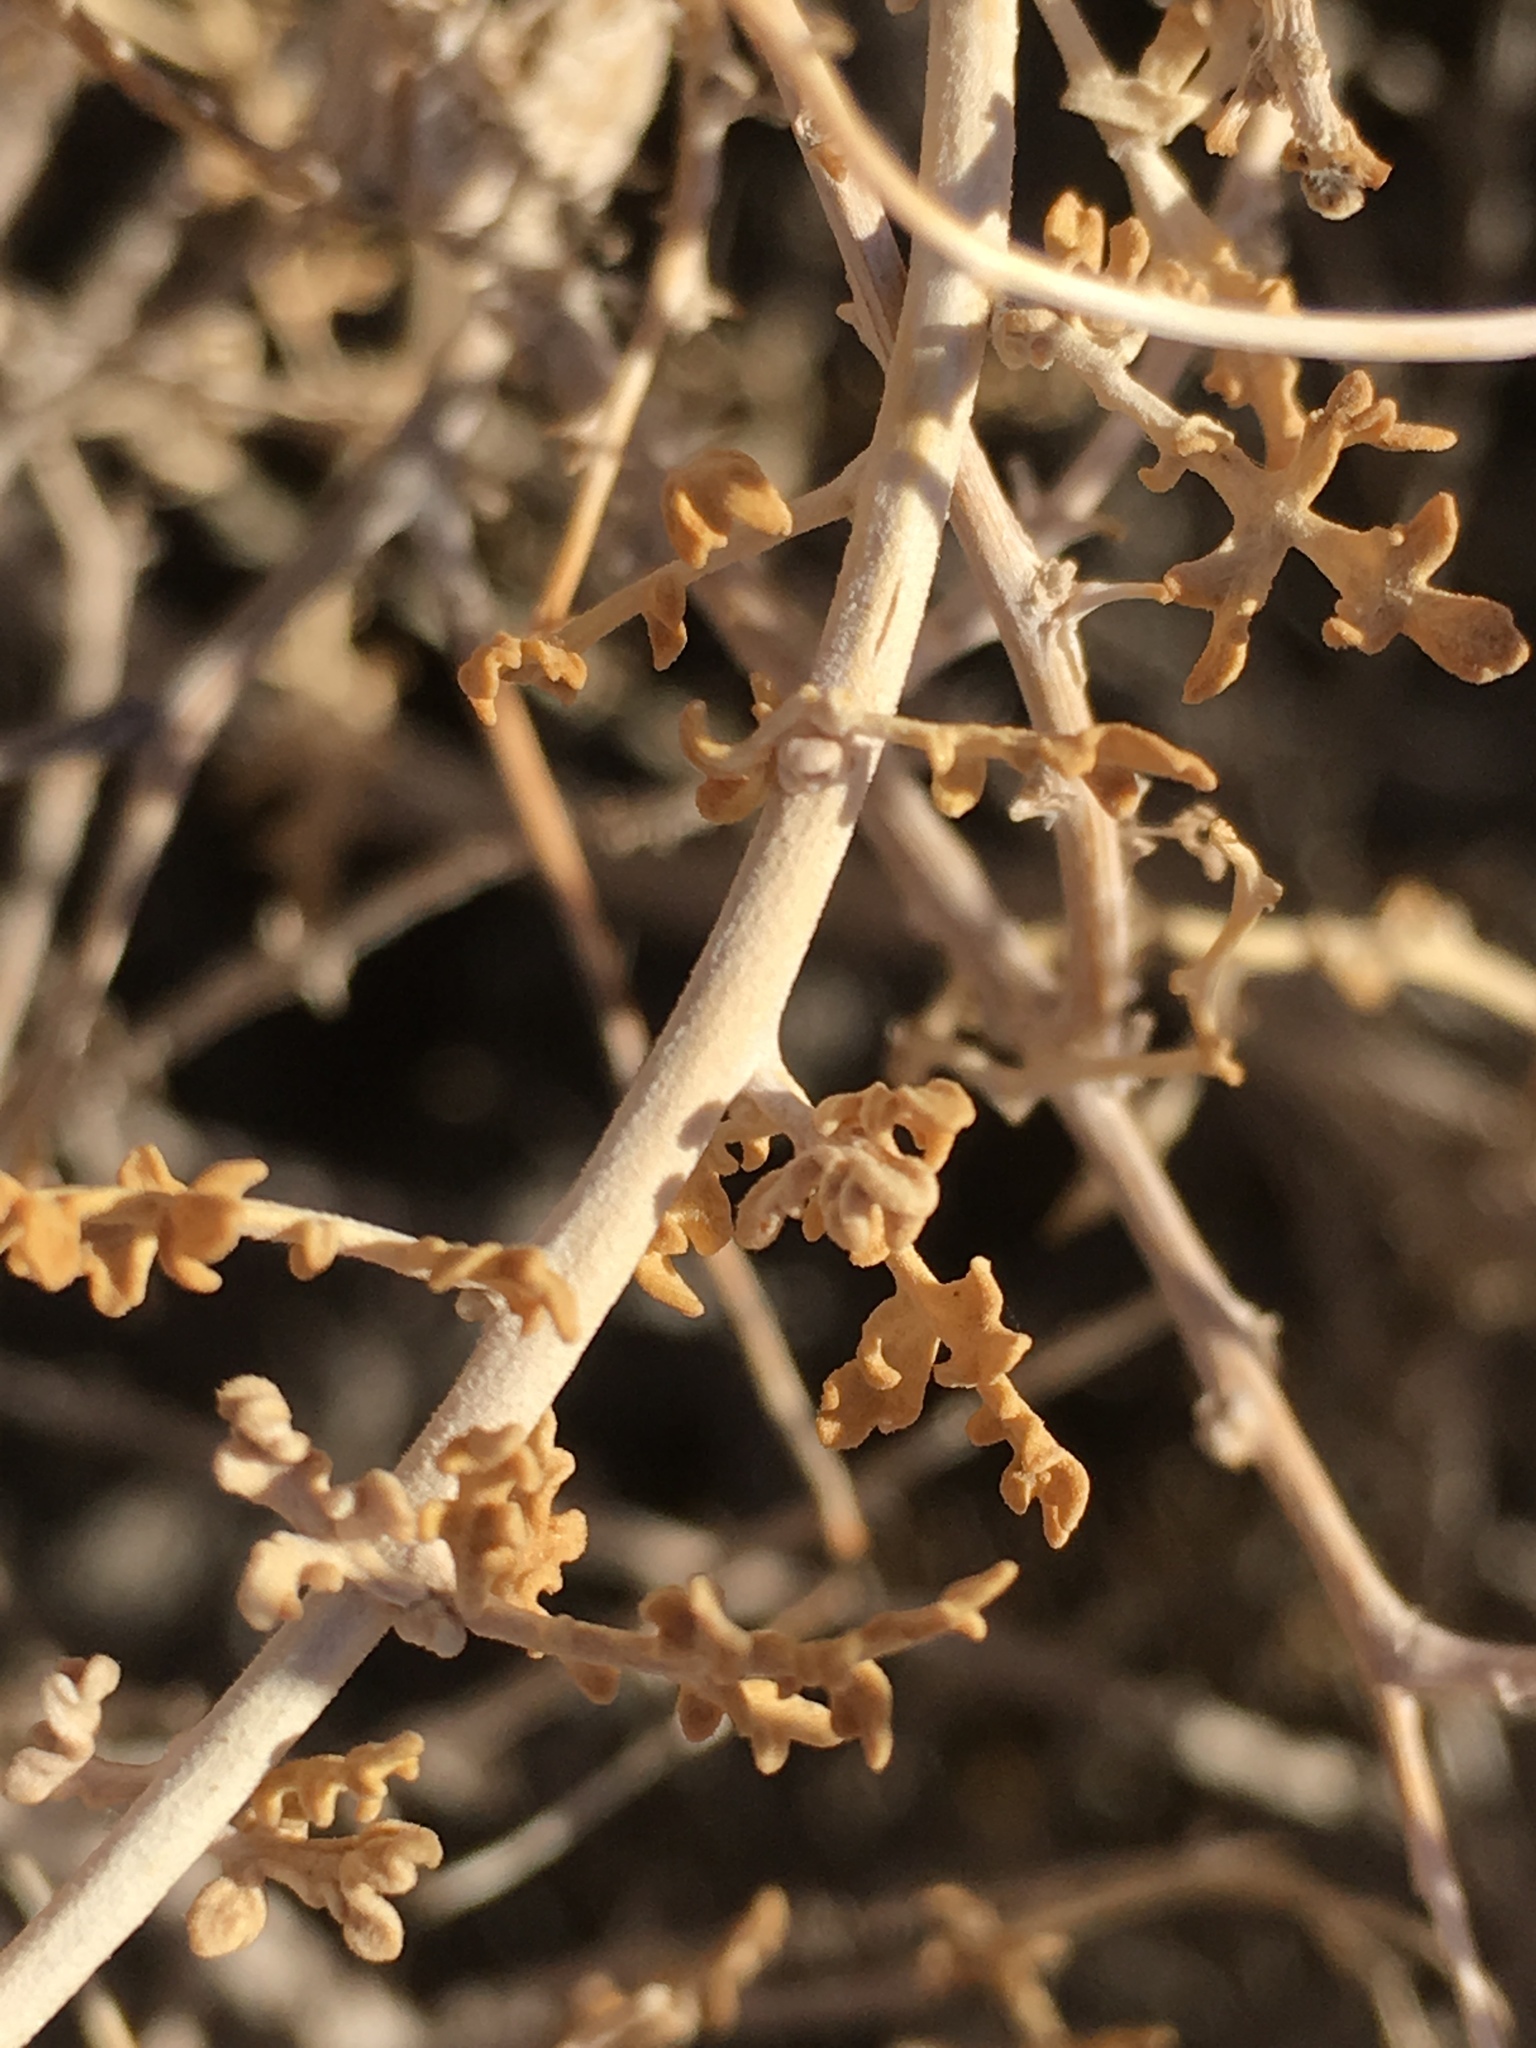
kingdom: Plantae
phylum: Tracheophyta
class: Magnoliopsida
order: Asterales
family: Asteraceae
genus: Ambrosia
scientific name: Ambrosia dumosa
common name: Bur-sage
